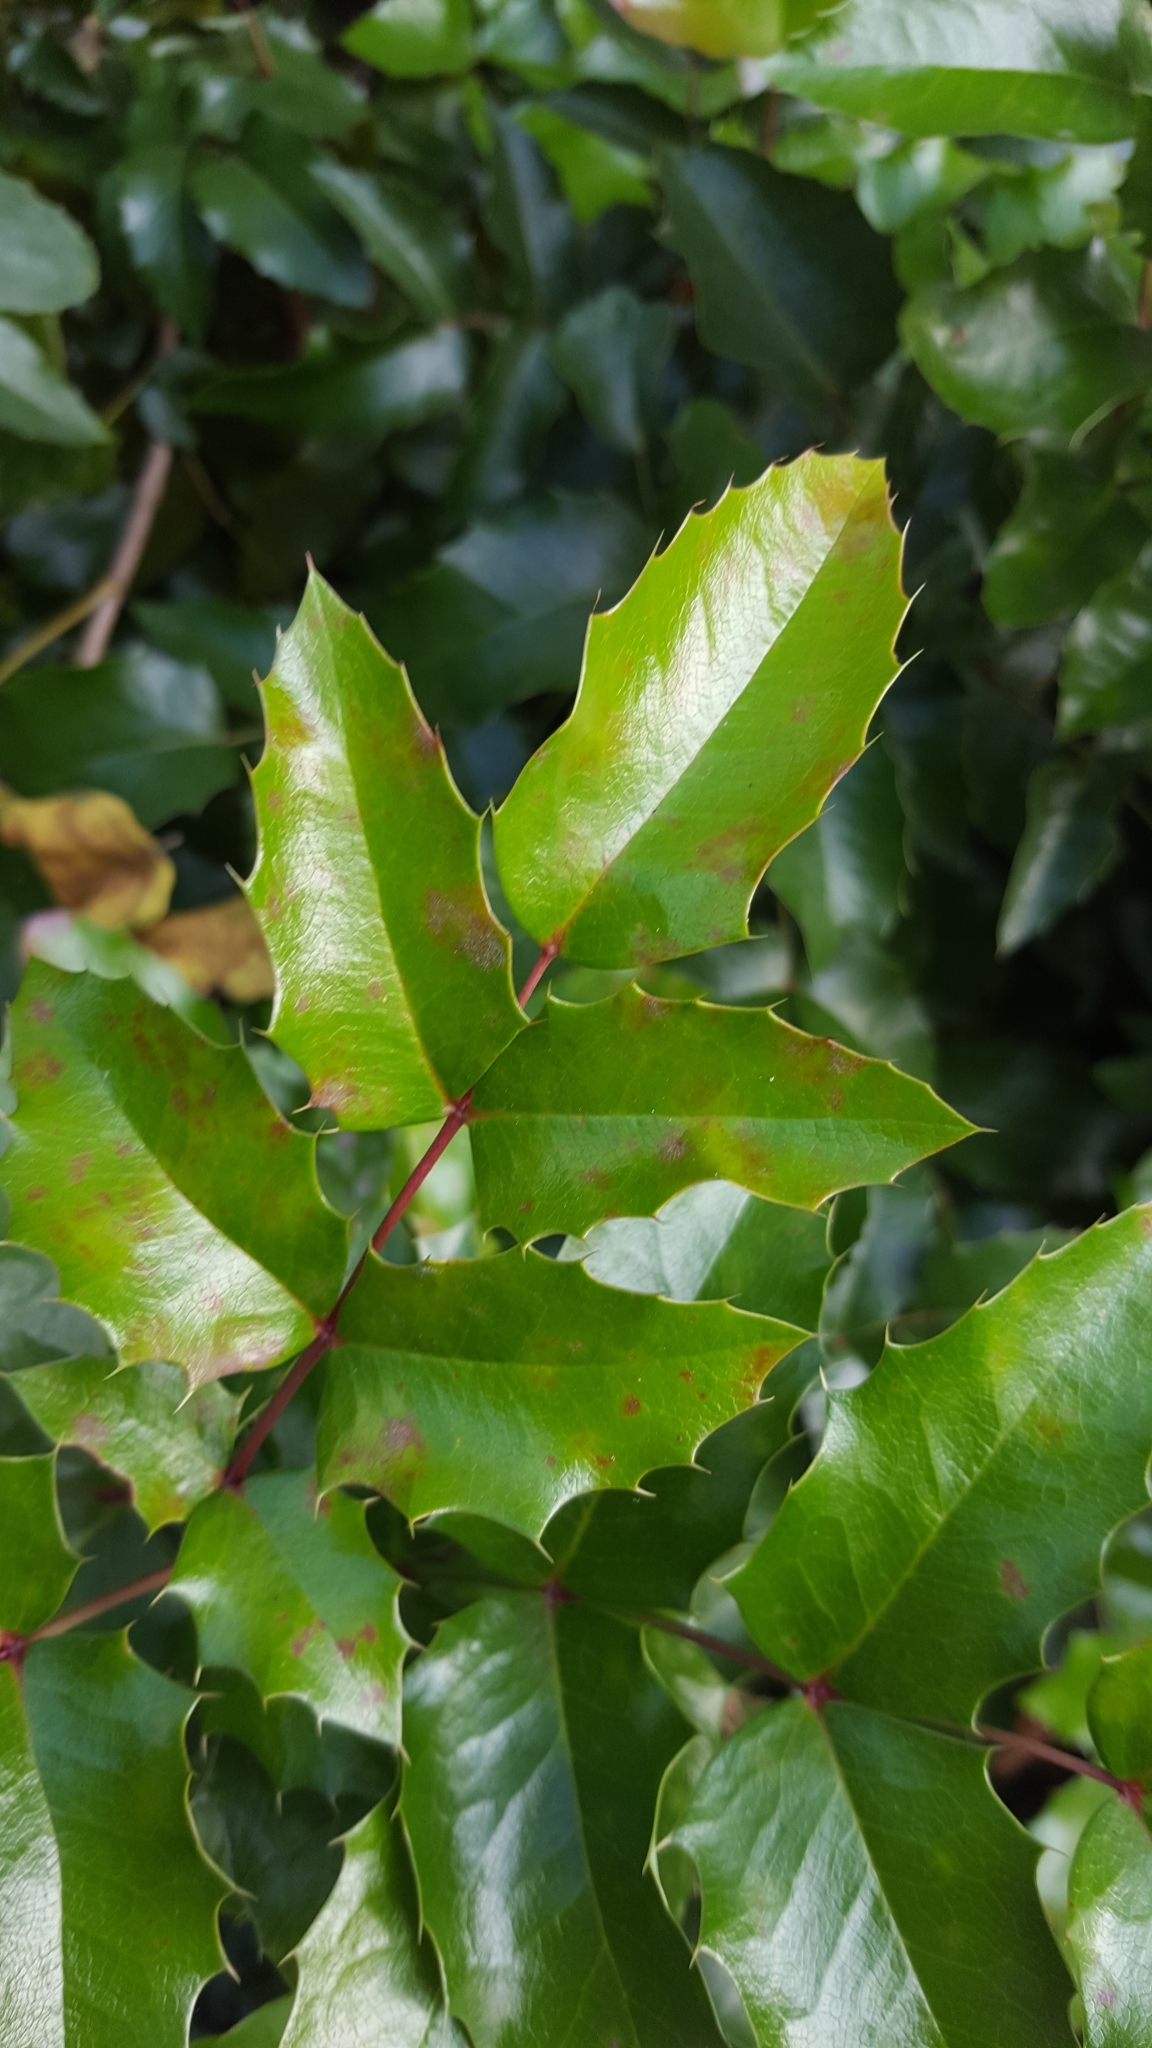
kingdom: Plantae
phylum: Tracheophyta
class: Magnoliopsida
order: Ranunculales
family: Berberidaceae
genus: Mahonia
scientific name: Mahonia aquifolium
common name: Oregon-grape
